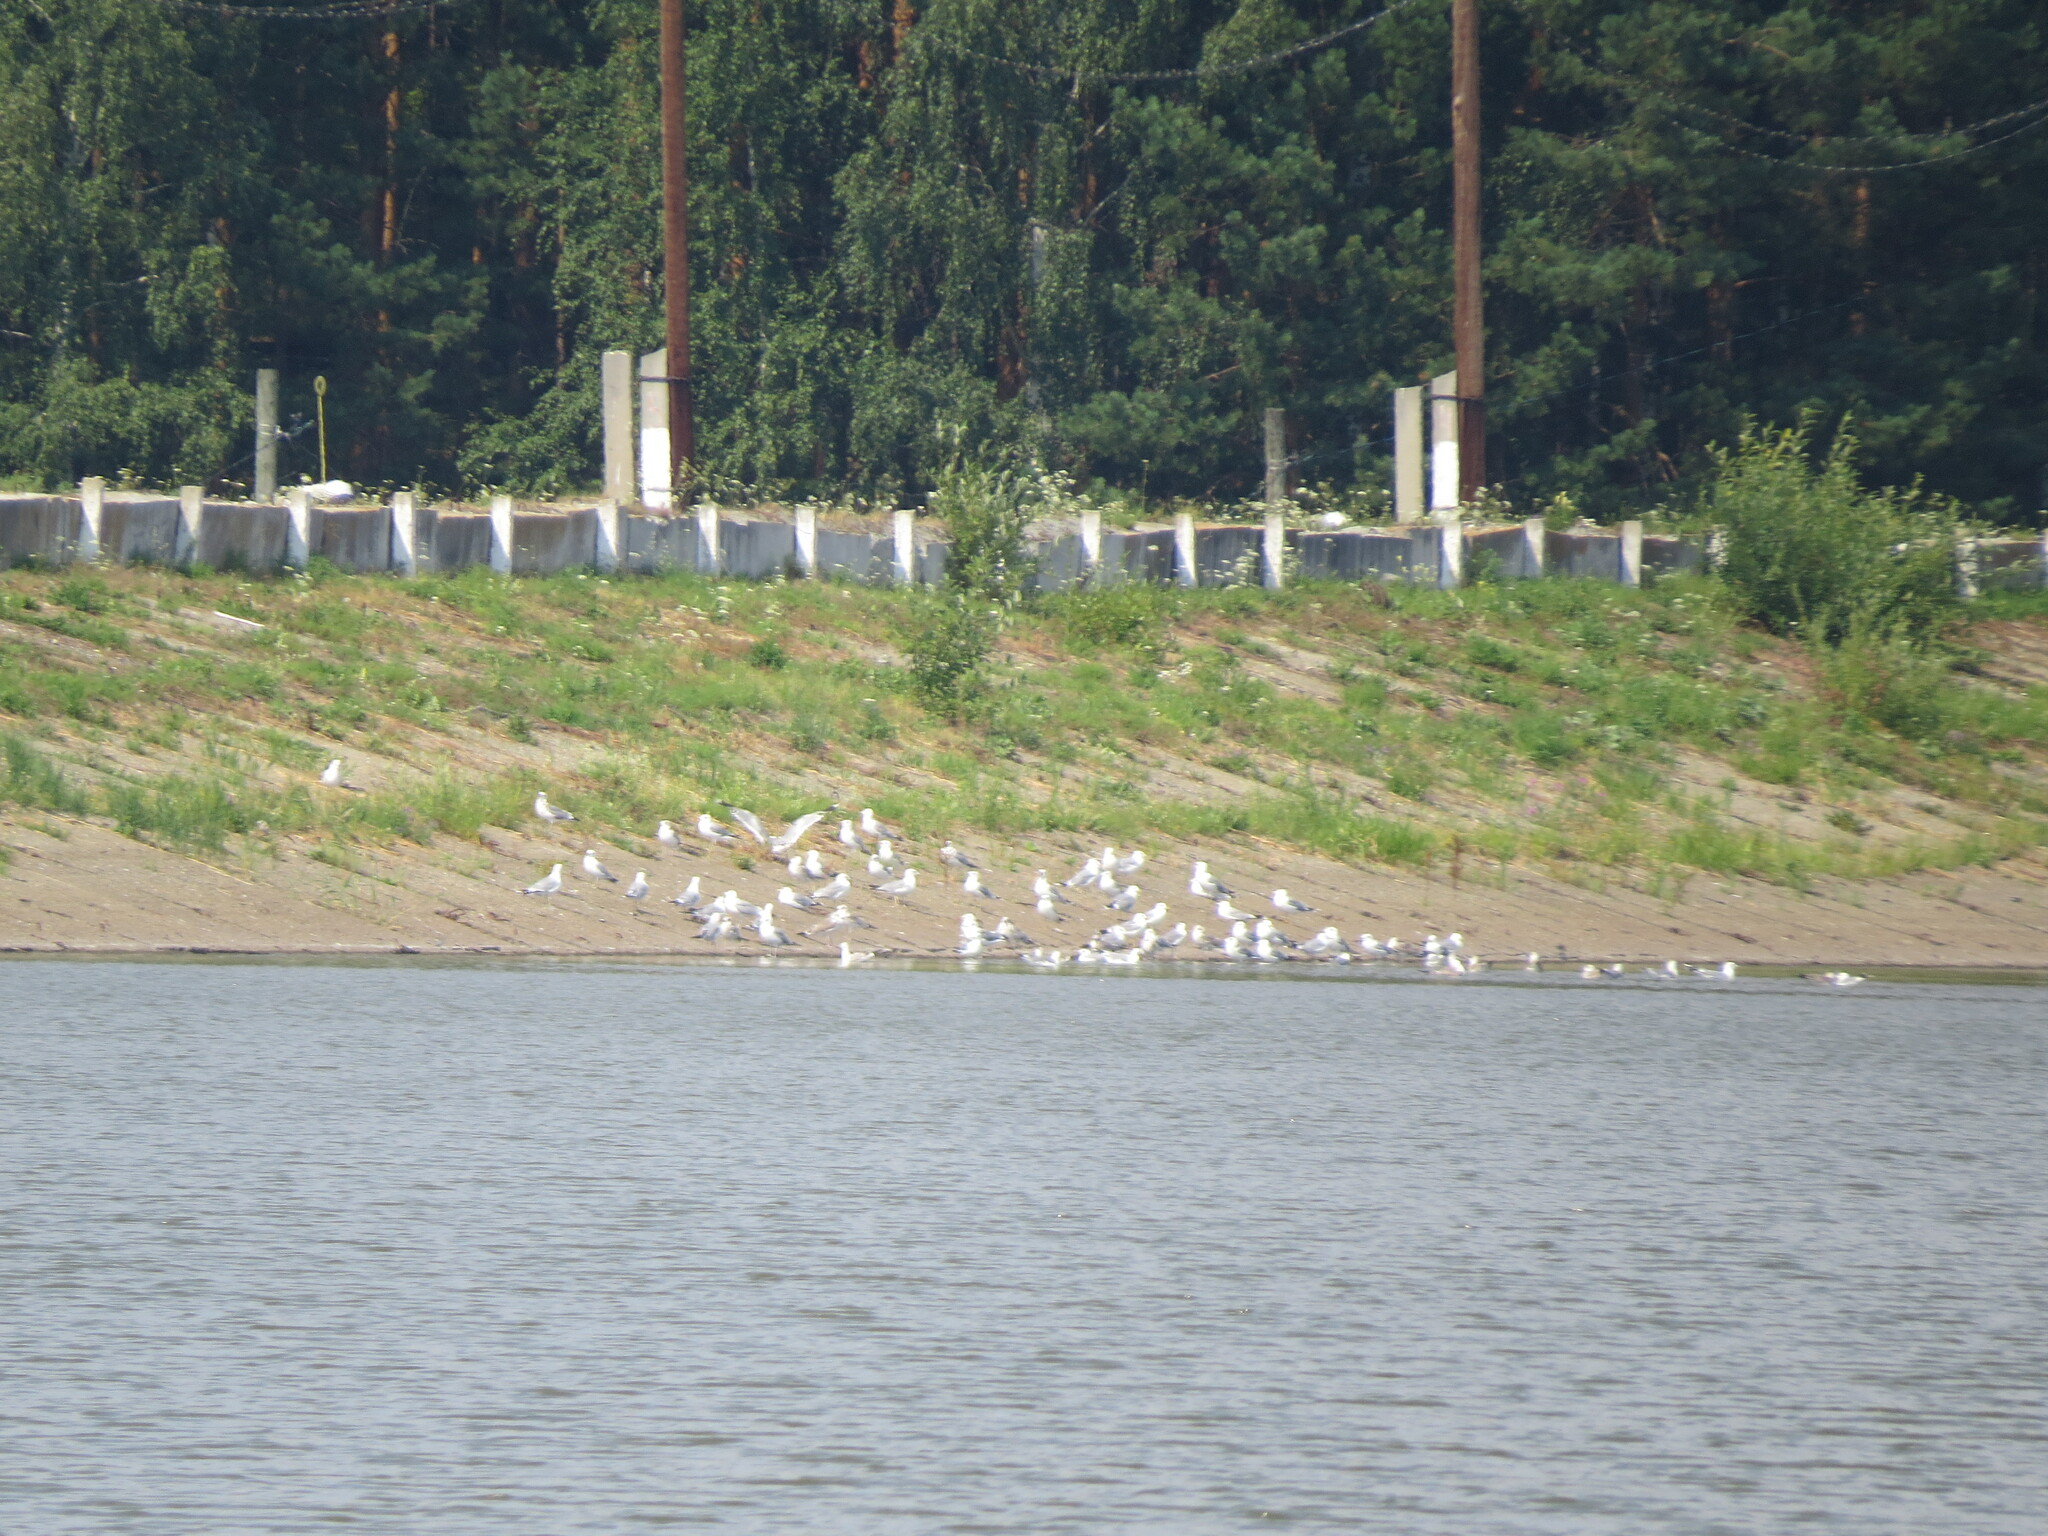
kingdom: Animalia
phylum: Chordata
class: Aves
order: Charadriiformes
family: Laridae
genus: Larus
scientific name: Larus fuscus
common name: Lesser black-backed gull
